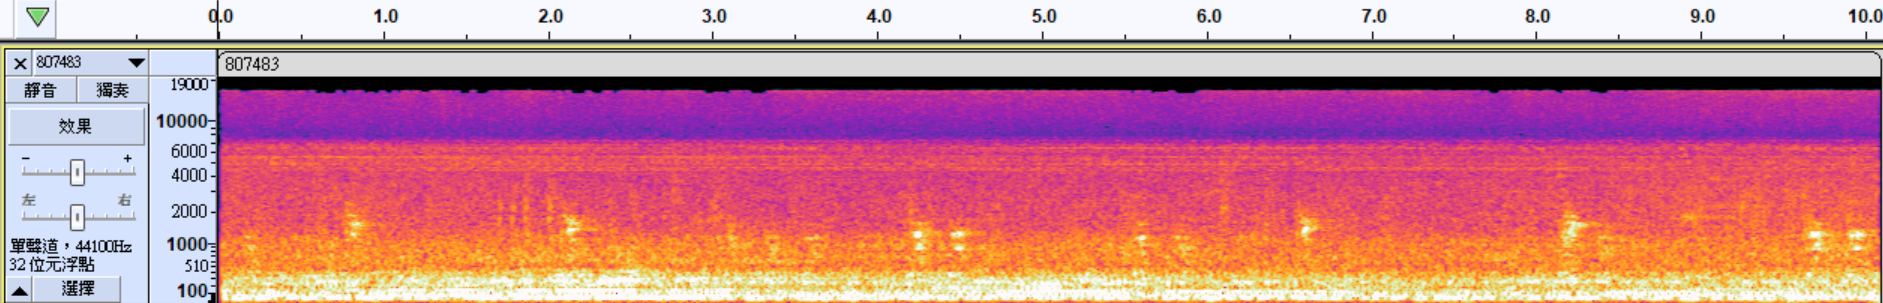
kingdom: Animalia
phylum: Chordata
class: Amphibia
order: Anura
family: Ranidae
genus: Sylvirana
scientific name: Sylvirana guentheri
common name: Guenther's amoy frog
